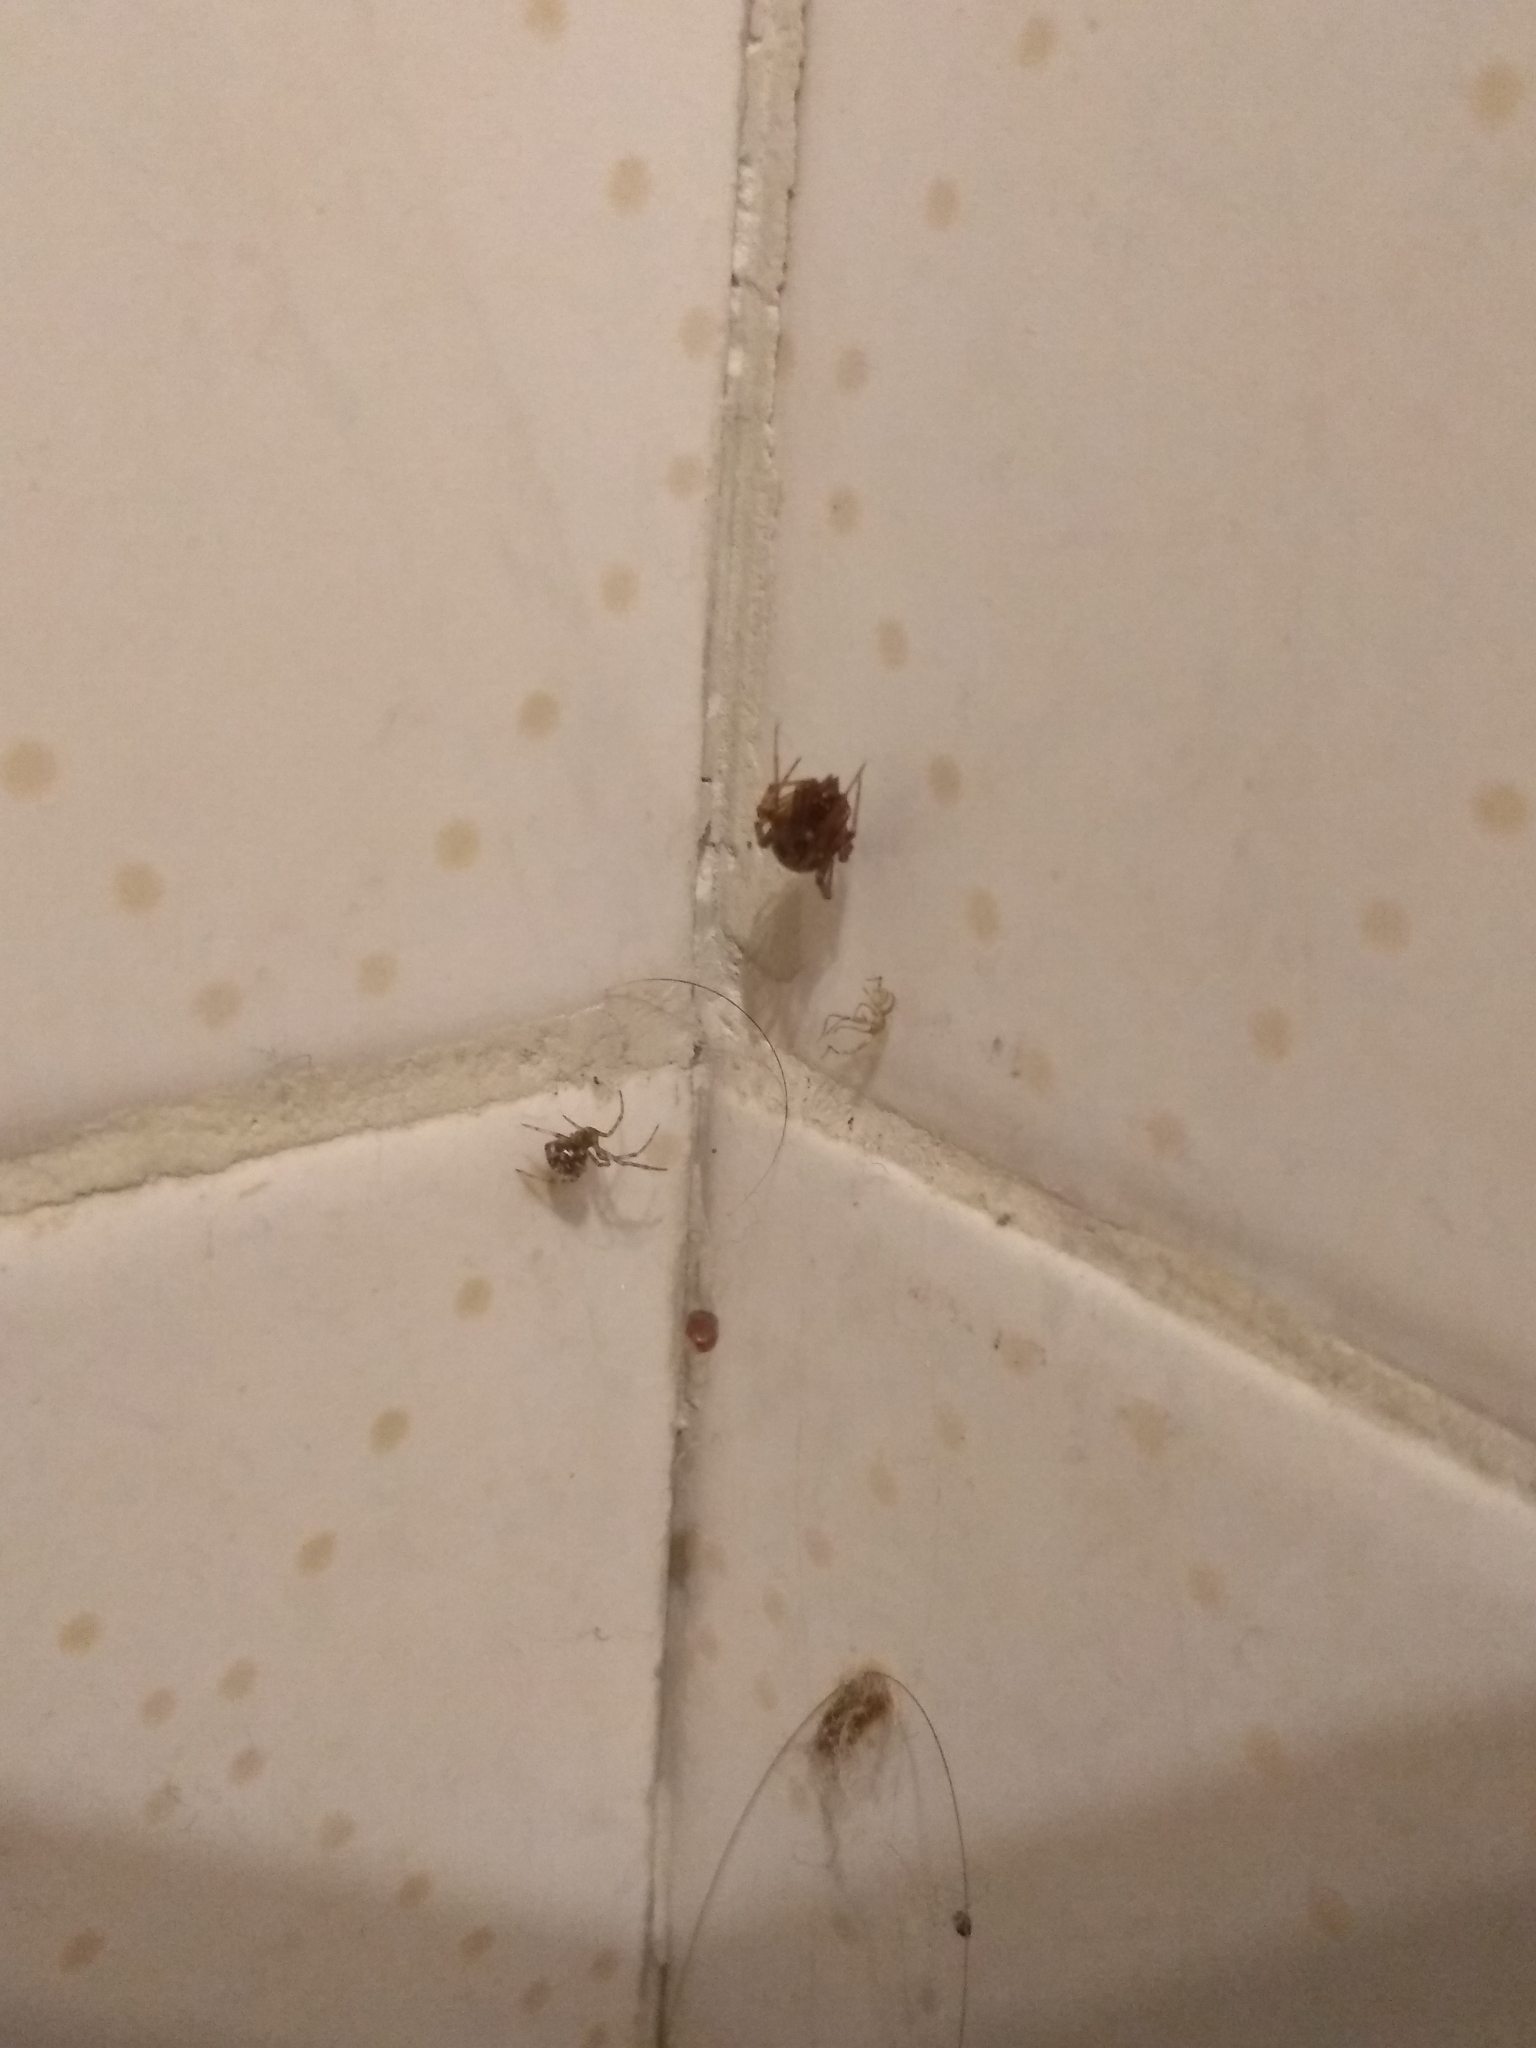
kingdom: Animalia
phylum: Arthropoda
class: Arachnida
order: Araneae
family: Theridiidae
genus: Steatoda
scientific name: Steatoda triangulosa
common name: Triangulate bud spider
